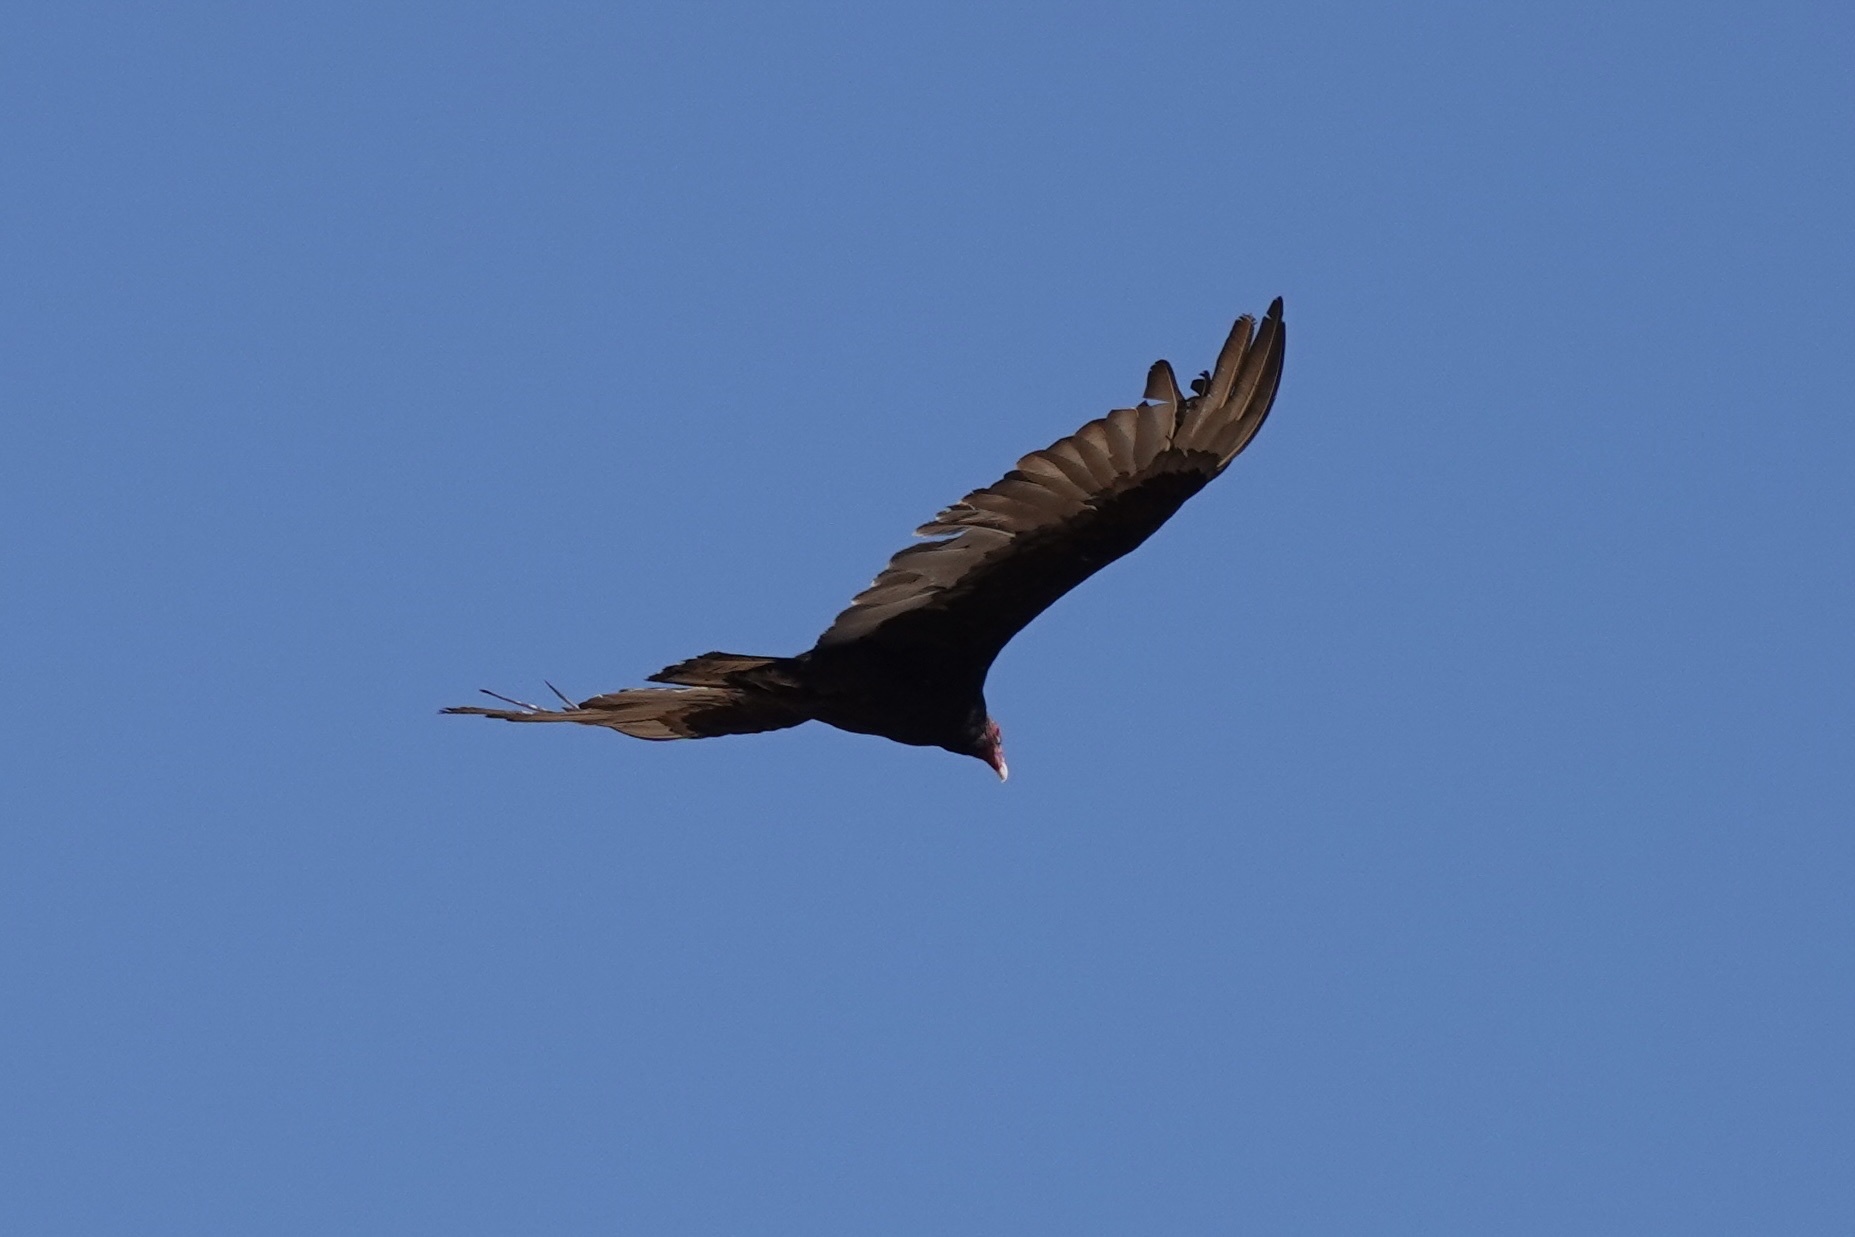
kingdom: Animalia
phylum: Chordata
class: Aves
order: Accipitriformes
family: Cathartidae
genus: Cathartes
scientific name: Cathartes aura
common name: Turkey vulture
